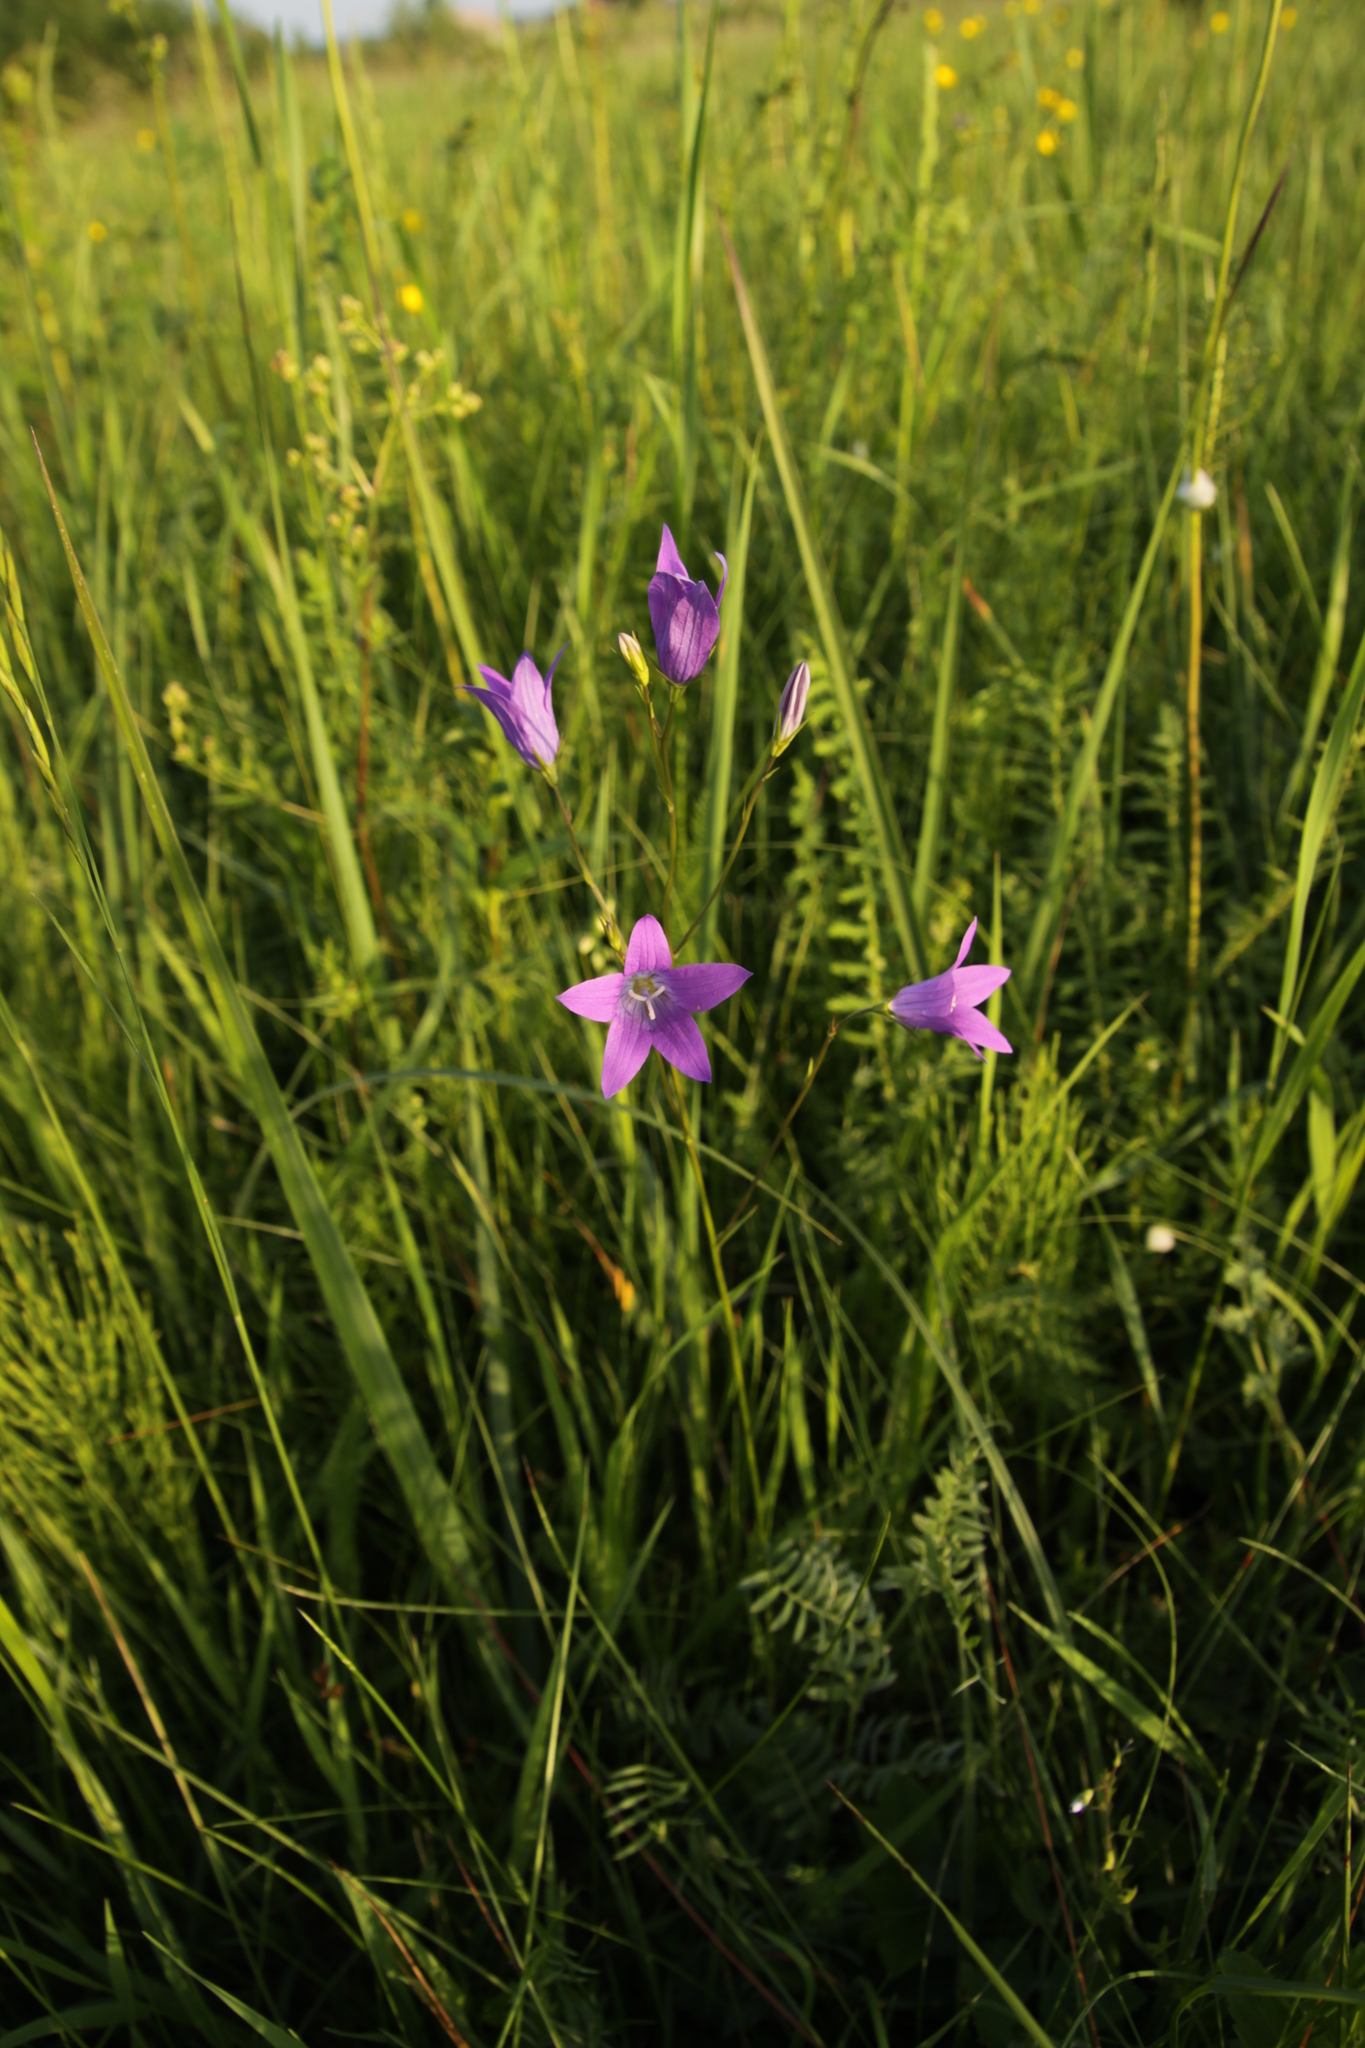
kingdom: Plantae
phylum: Tracheophyta
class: Magnoliopsida
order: Asterales
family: Campanulaceae
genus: Campanula
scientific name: Campanula patula
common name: Spreading bellflower
